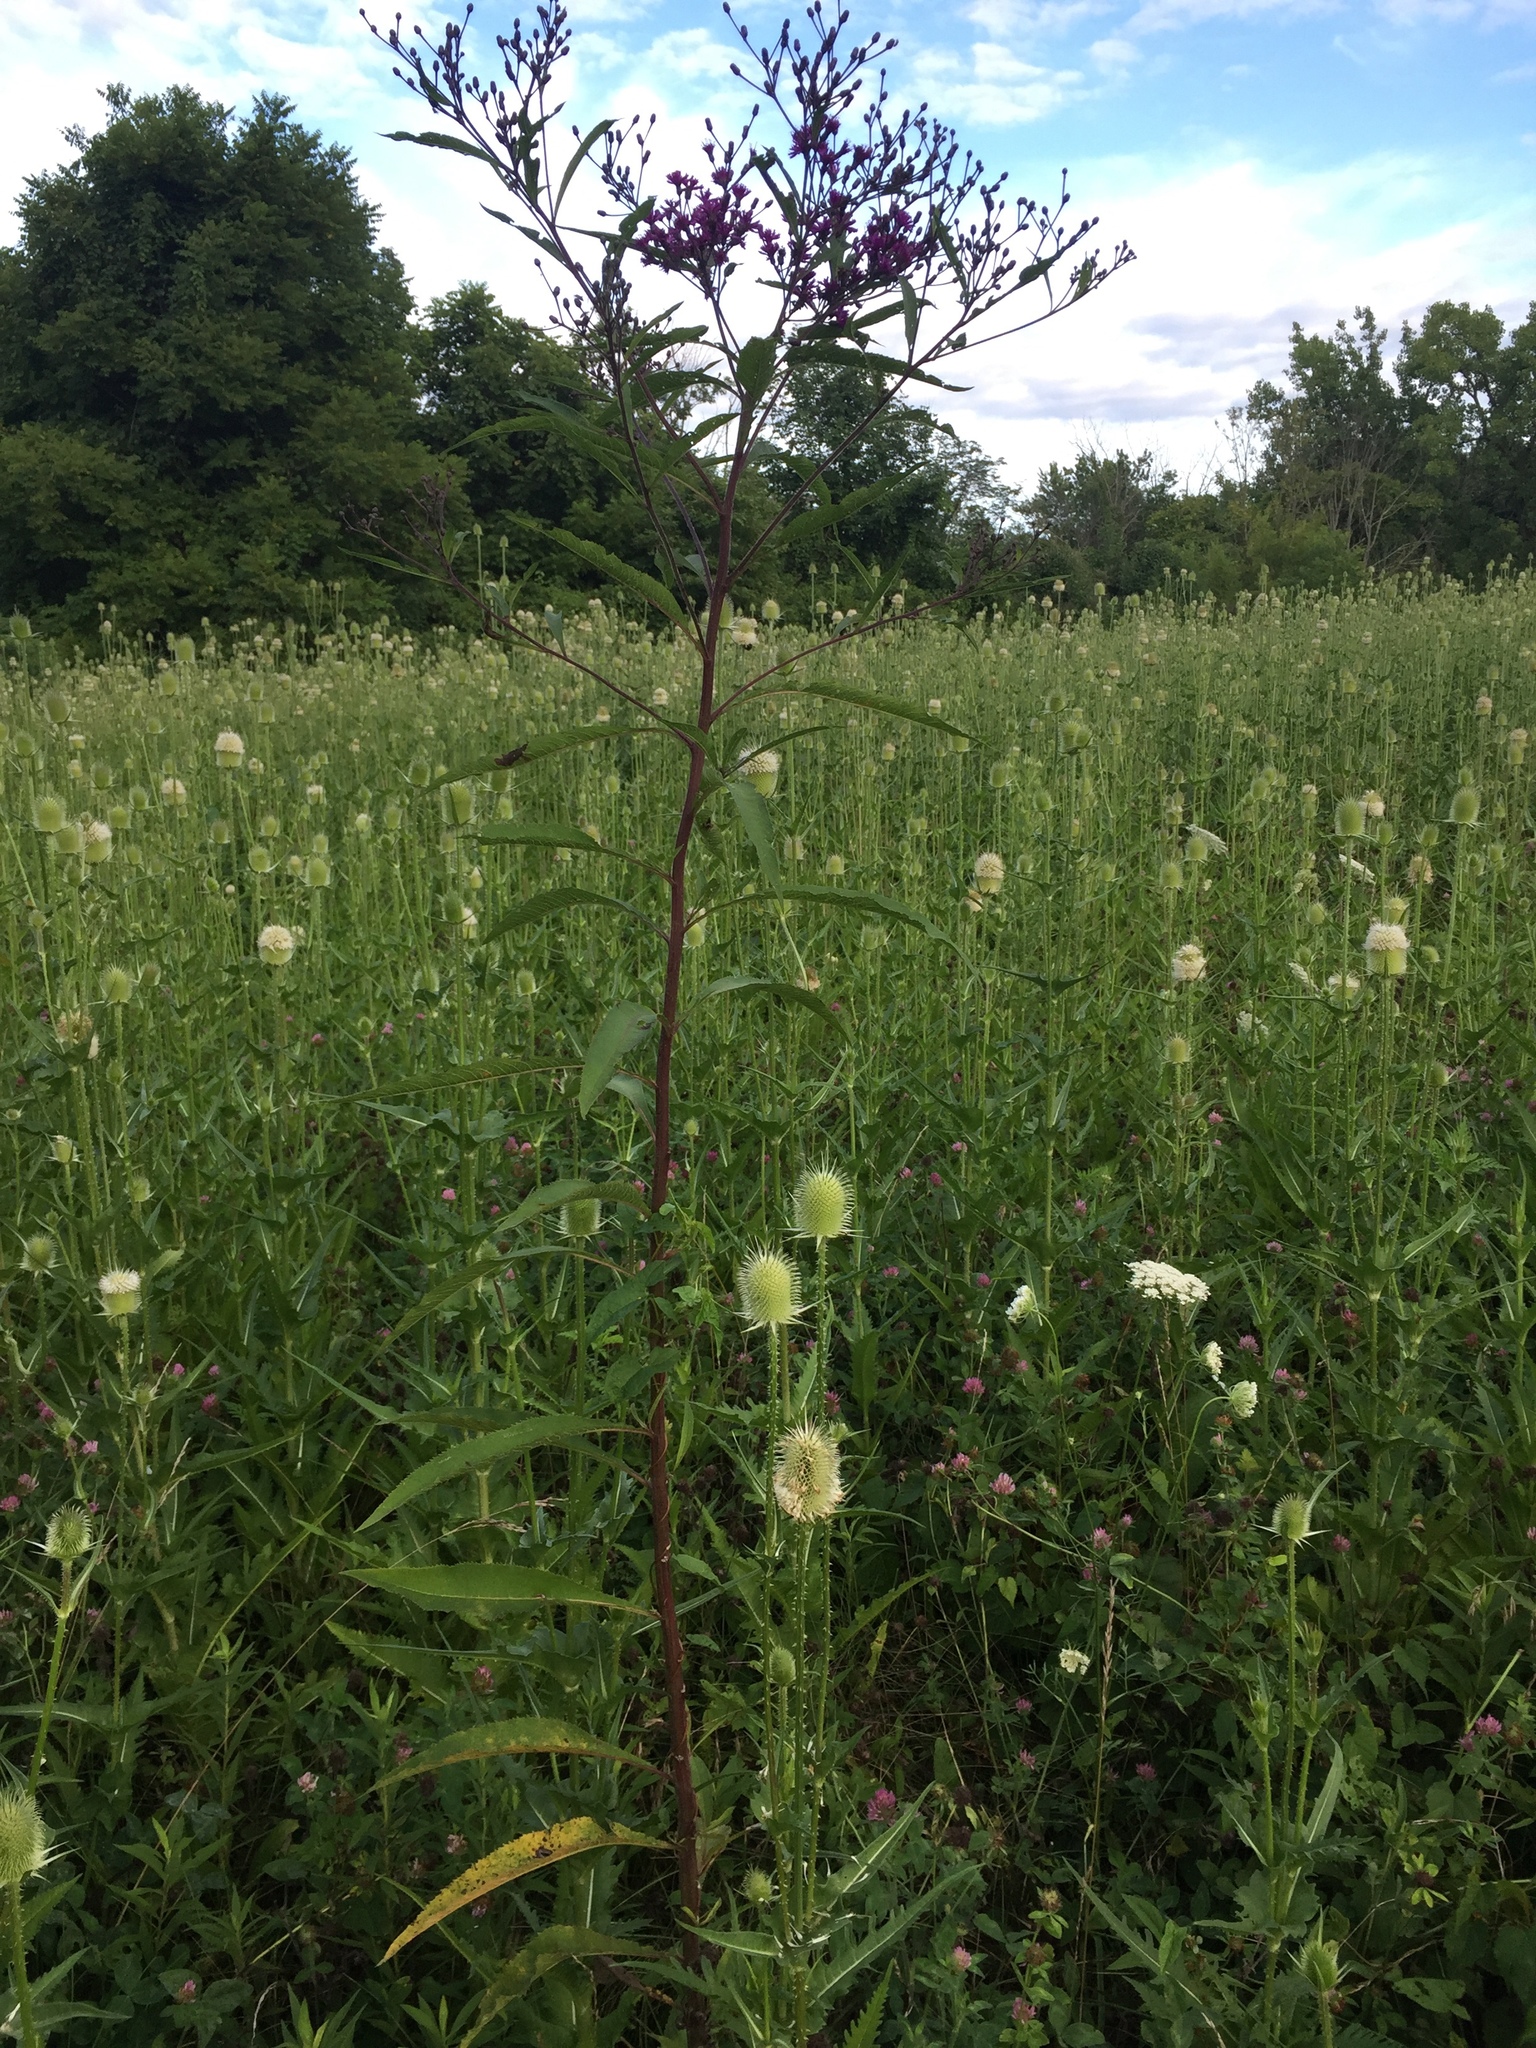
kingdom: Plantae
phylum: Tracheophyta
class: Magnoliopsida
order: Asterales
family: Asteraceae
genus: Vernonia
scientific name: Vernonia gigantea
